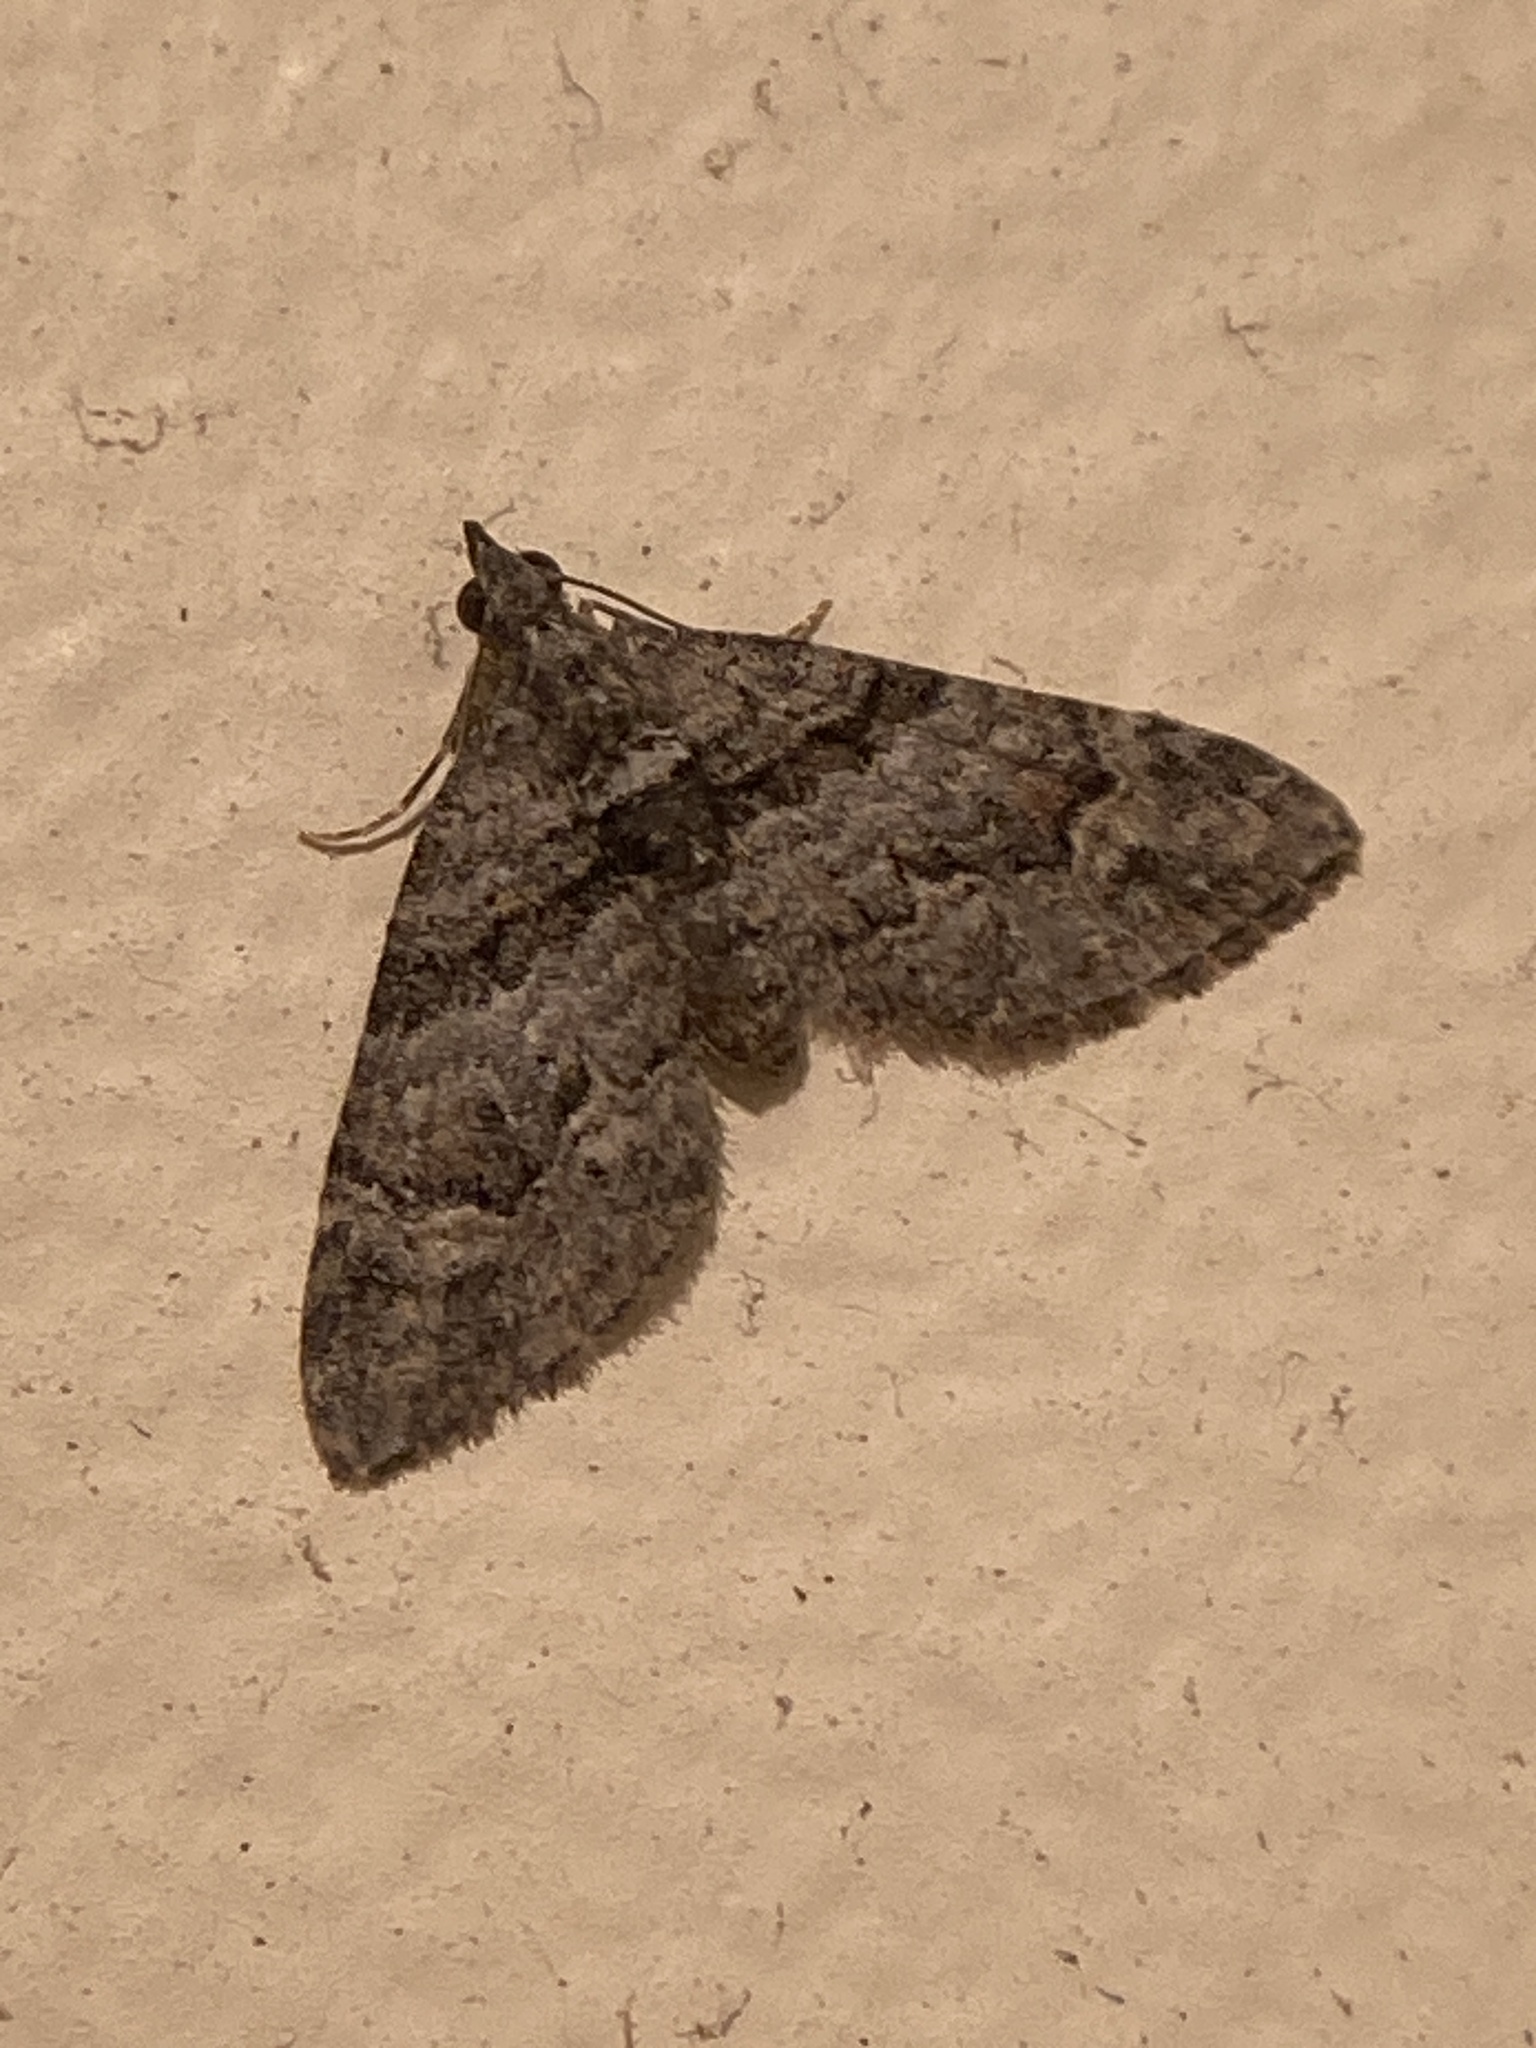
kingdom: Animalia
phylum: Arthropoda
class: Insecta
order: Lepidoptera
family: Geometridae
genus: Phrissogonus
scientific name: Phrissogonus laticostata
